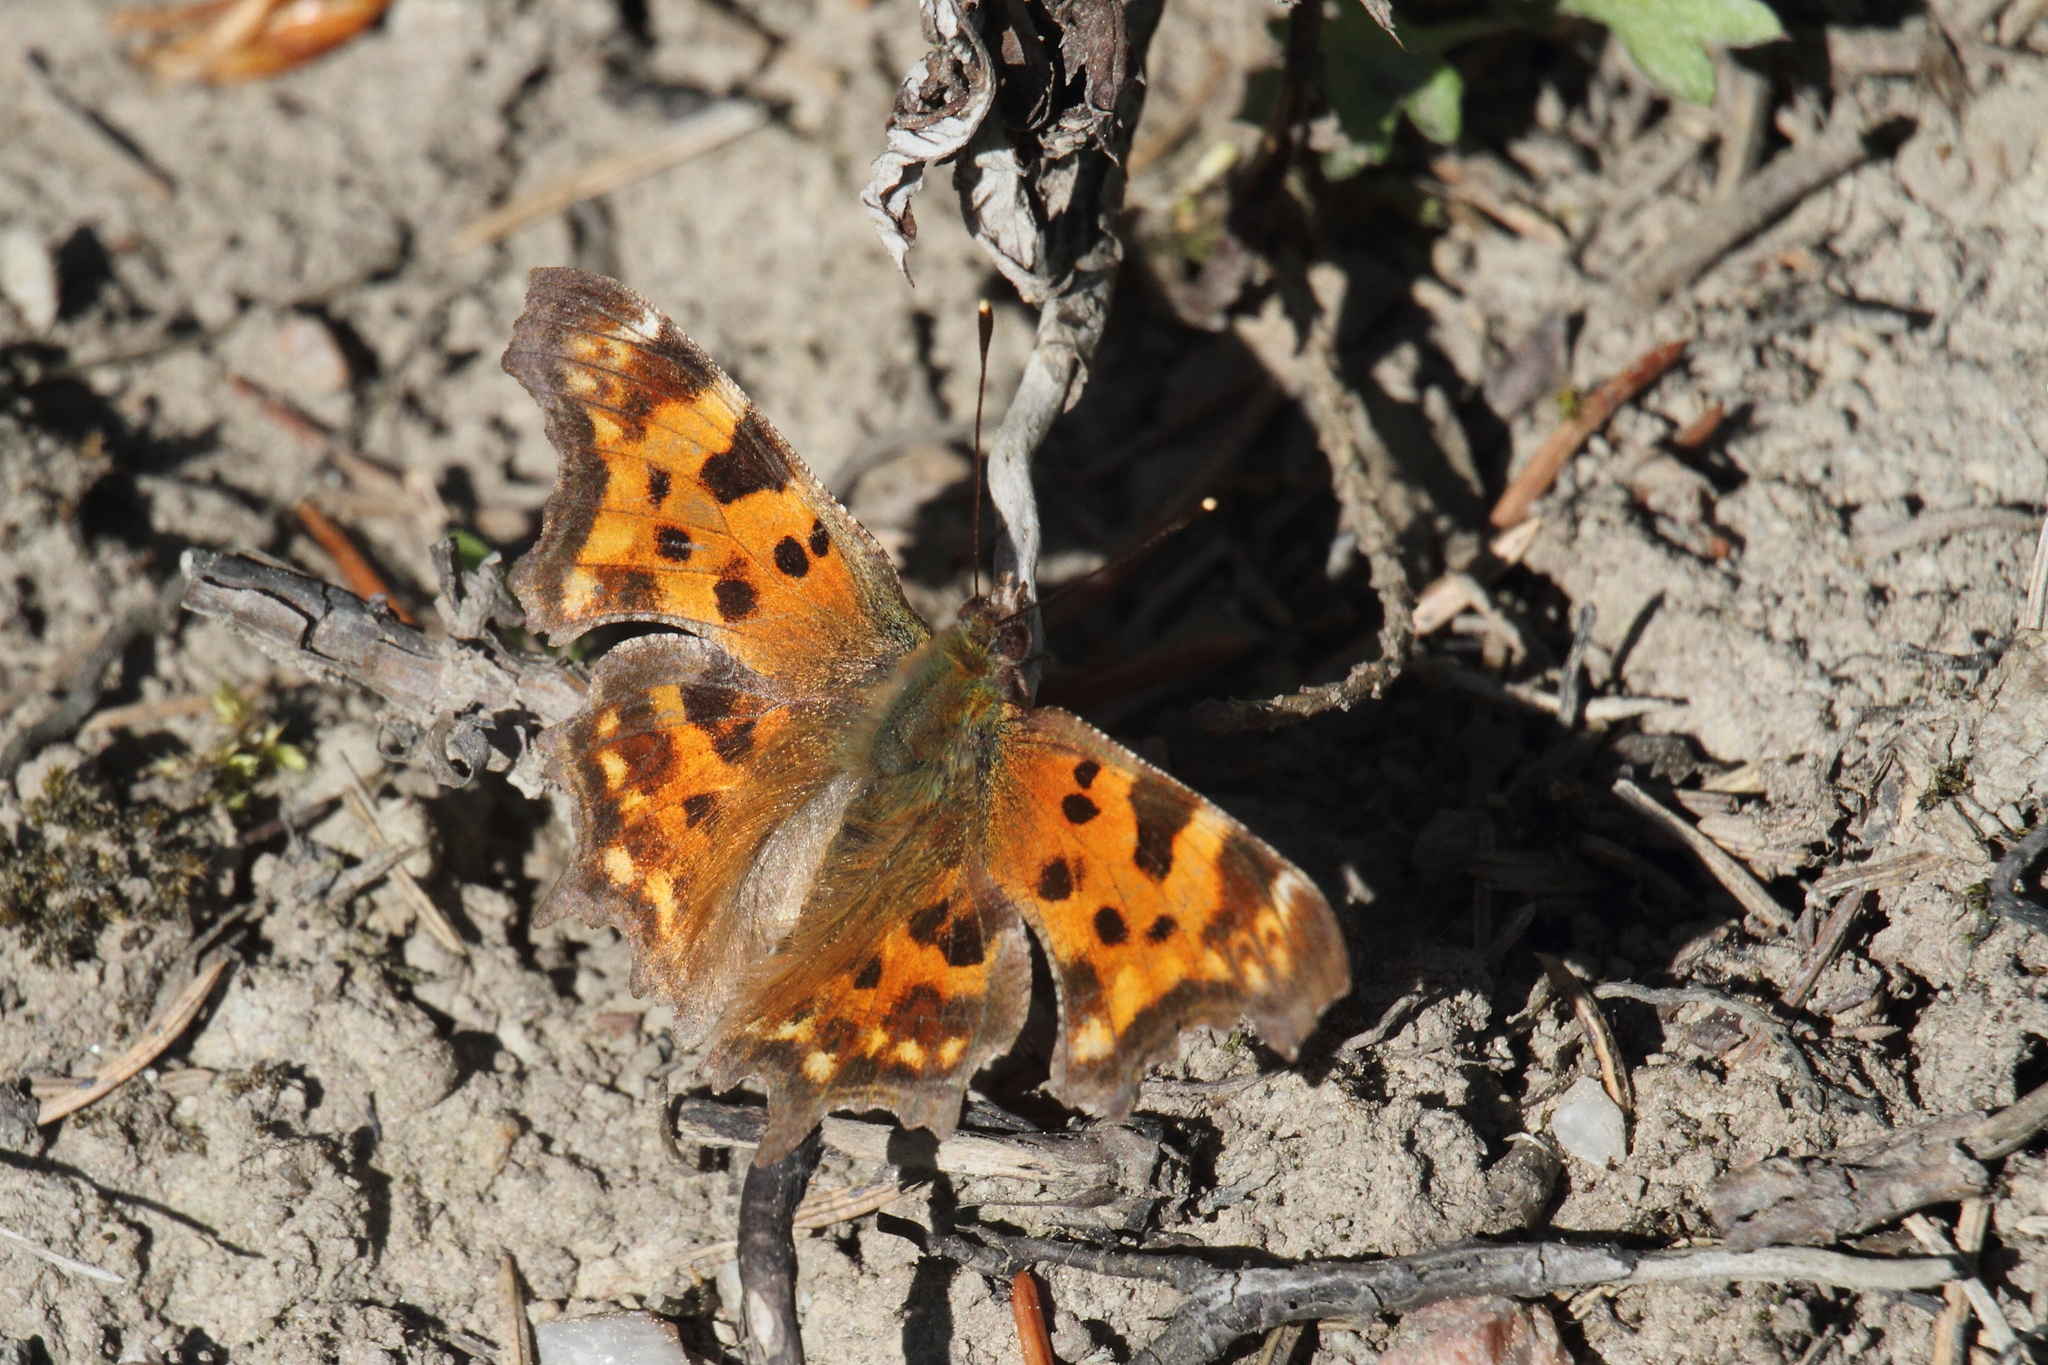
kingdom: Animalia
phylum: Arthropoda
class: Insecta
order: Lepidoptera
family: Nymphalidae
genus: Polygonia
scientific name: Polygonia c-album
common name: Comma
